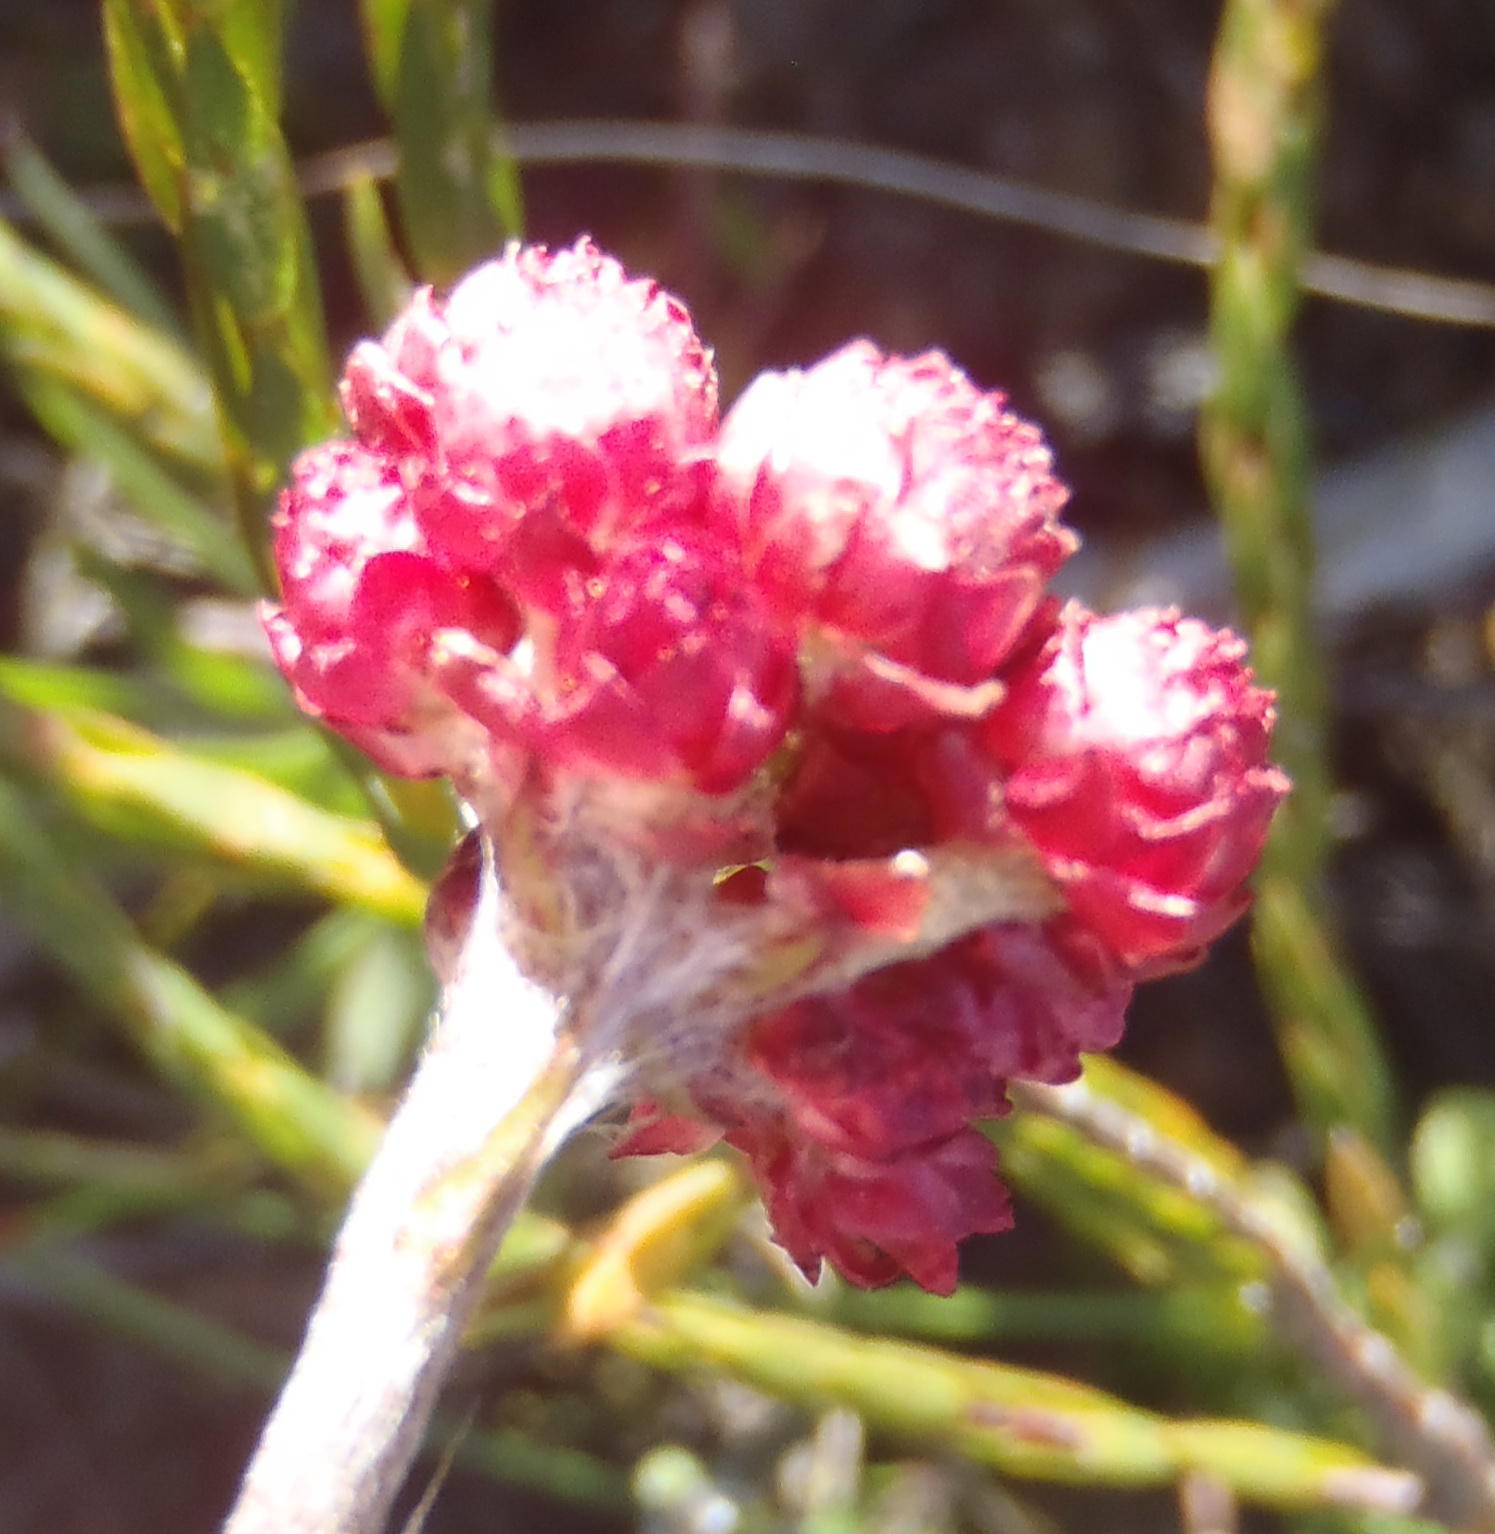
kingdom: Plantae
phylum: Tracheophyta
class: Magnoliopsida
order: Asterales
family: Asteraceae
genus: Helichrysum
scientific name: Helichrysum felinum
